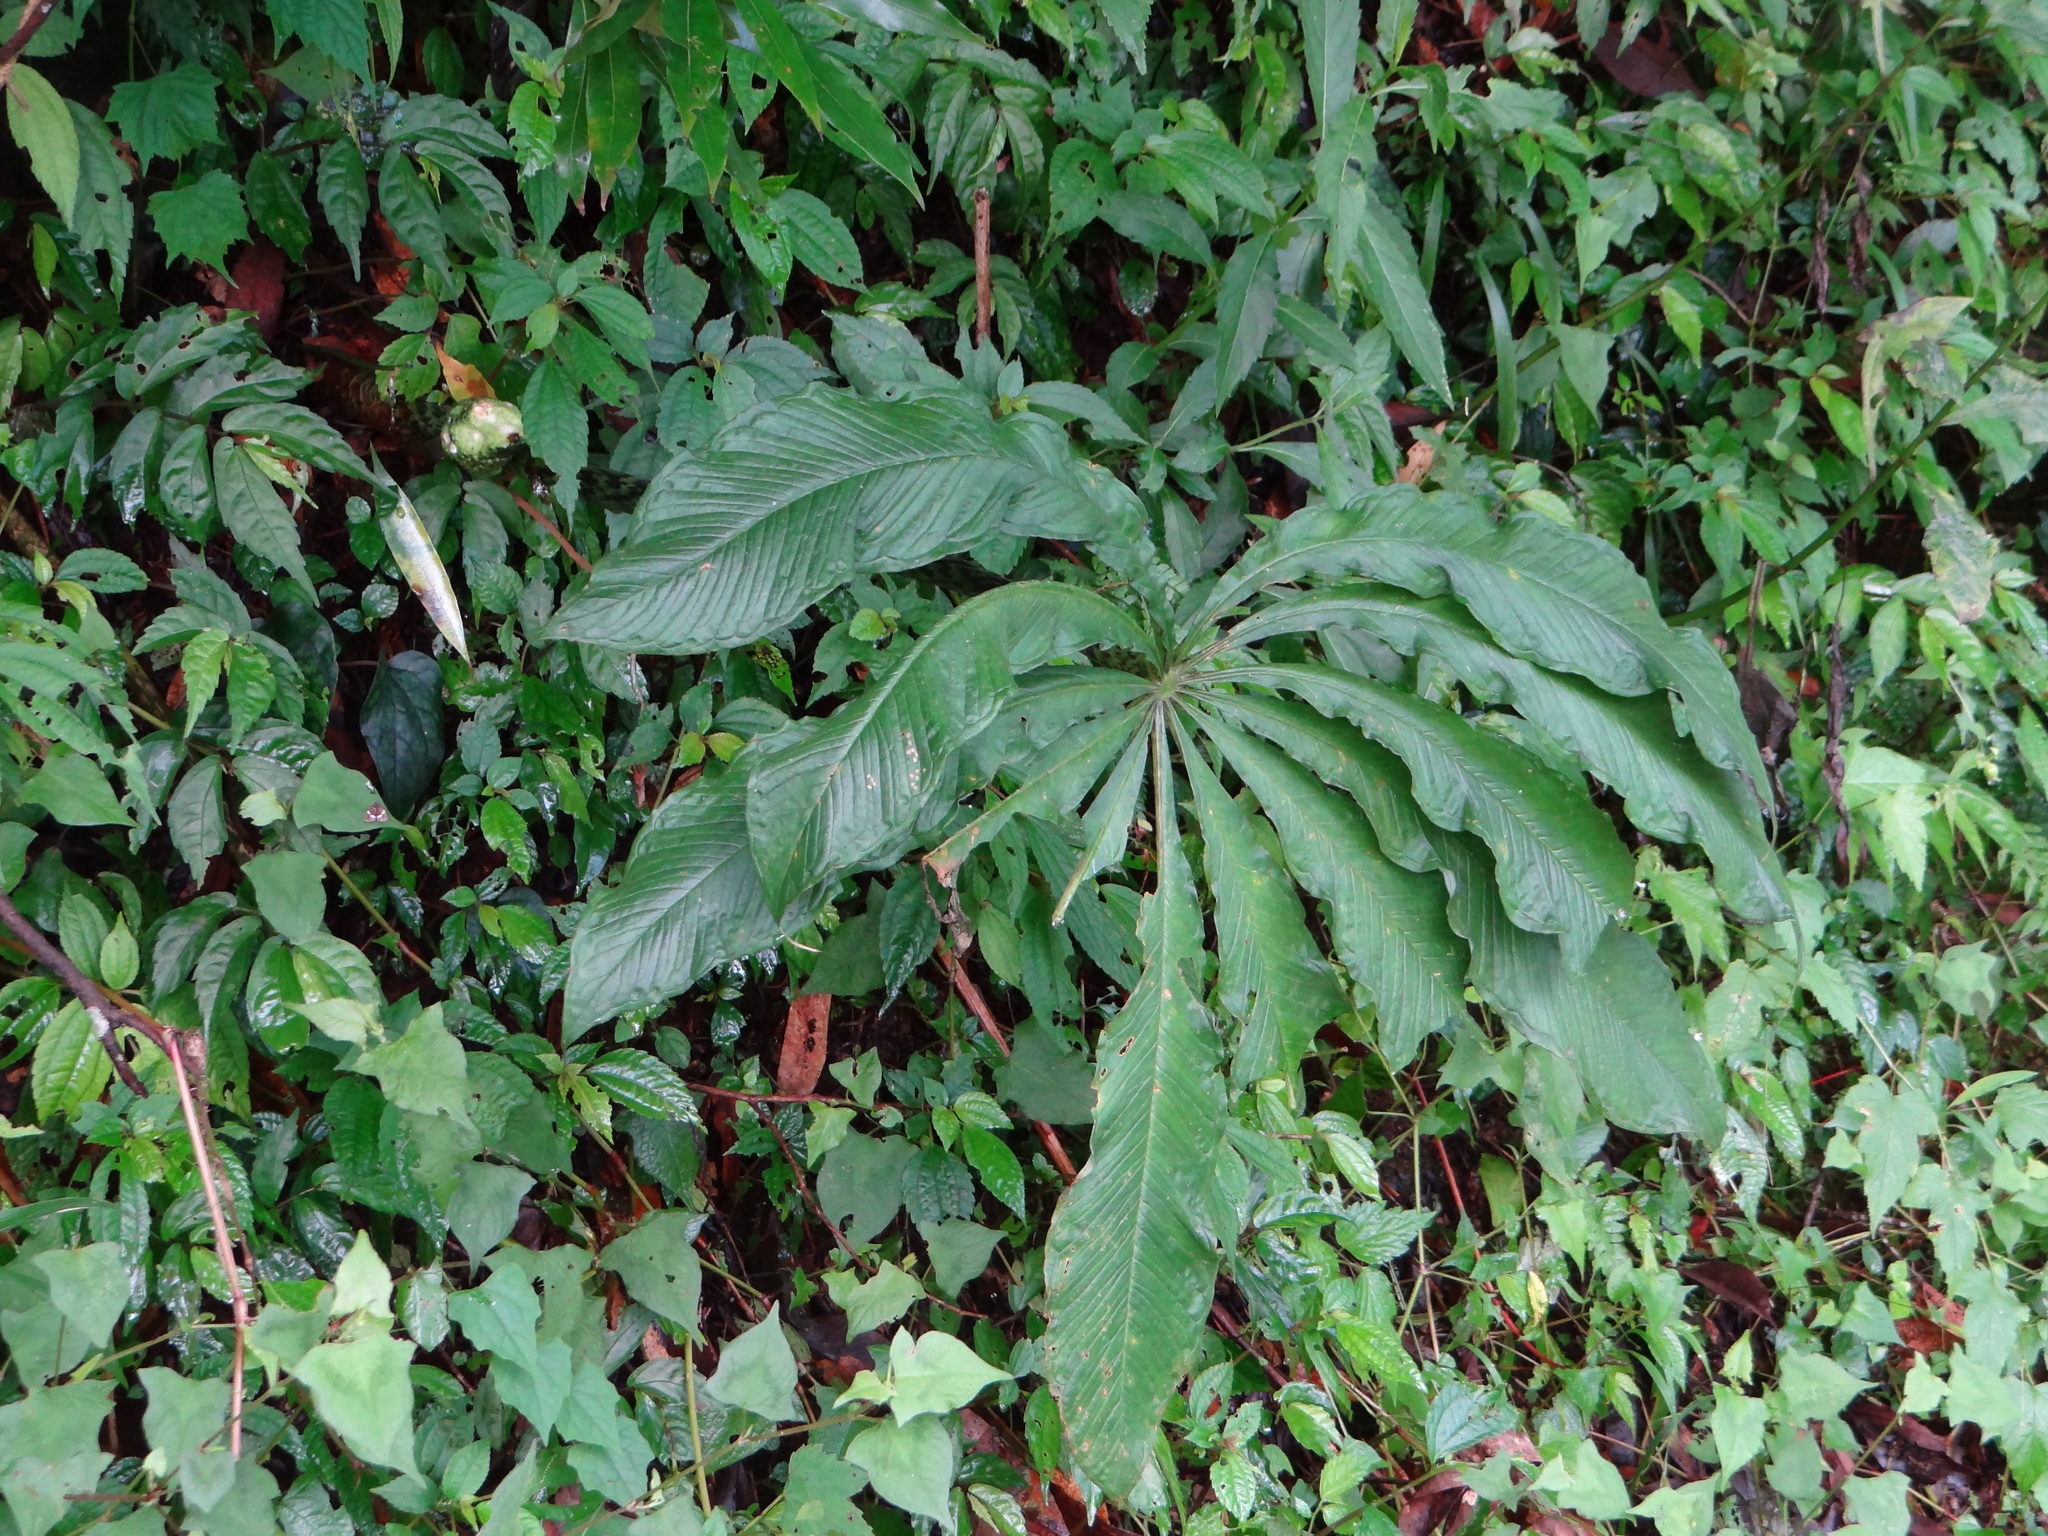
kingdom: Plantae
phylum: Tracheophyta
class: Liliopsida
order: Alismatales
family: Araceae
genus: Arisaema
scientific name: Arisaema taiwanense
